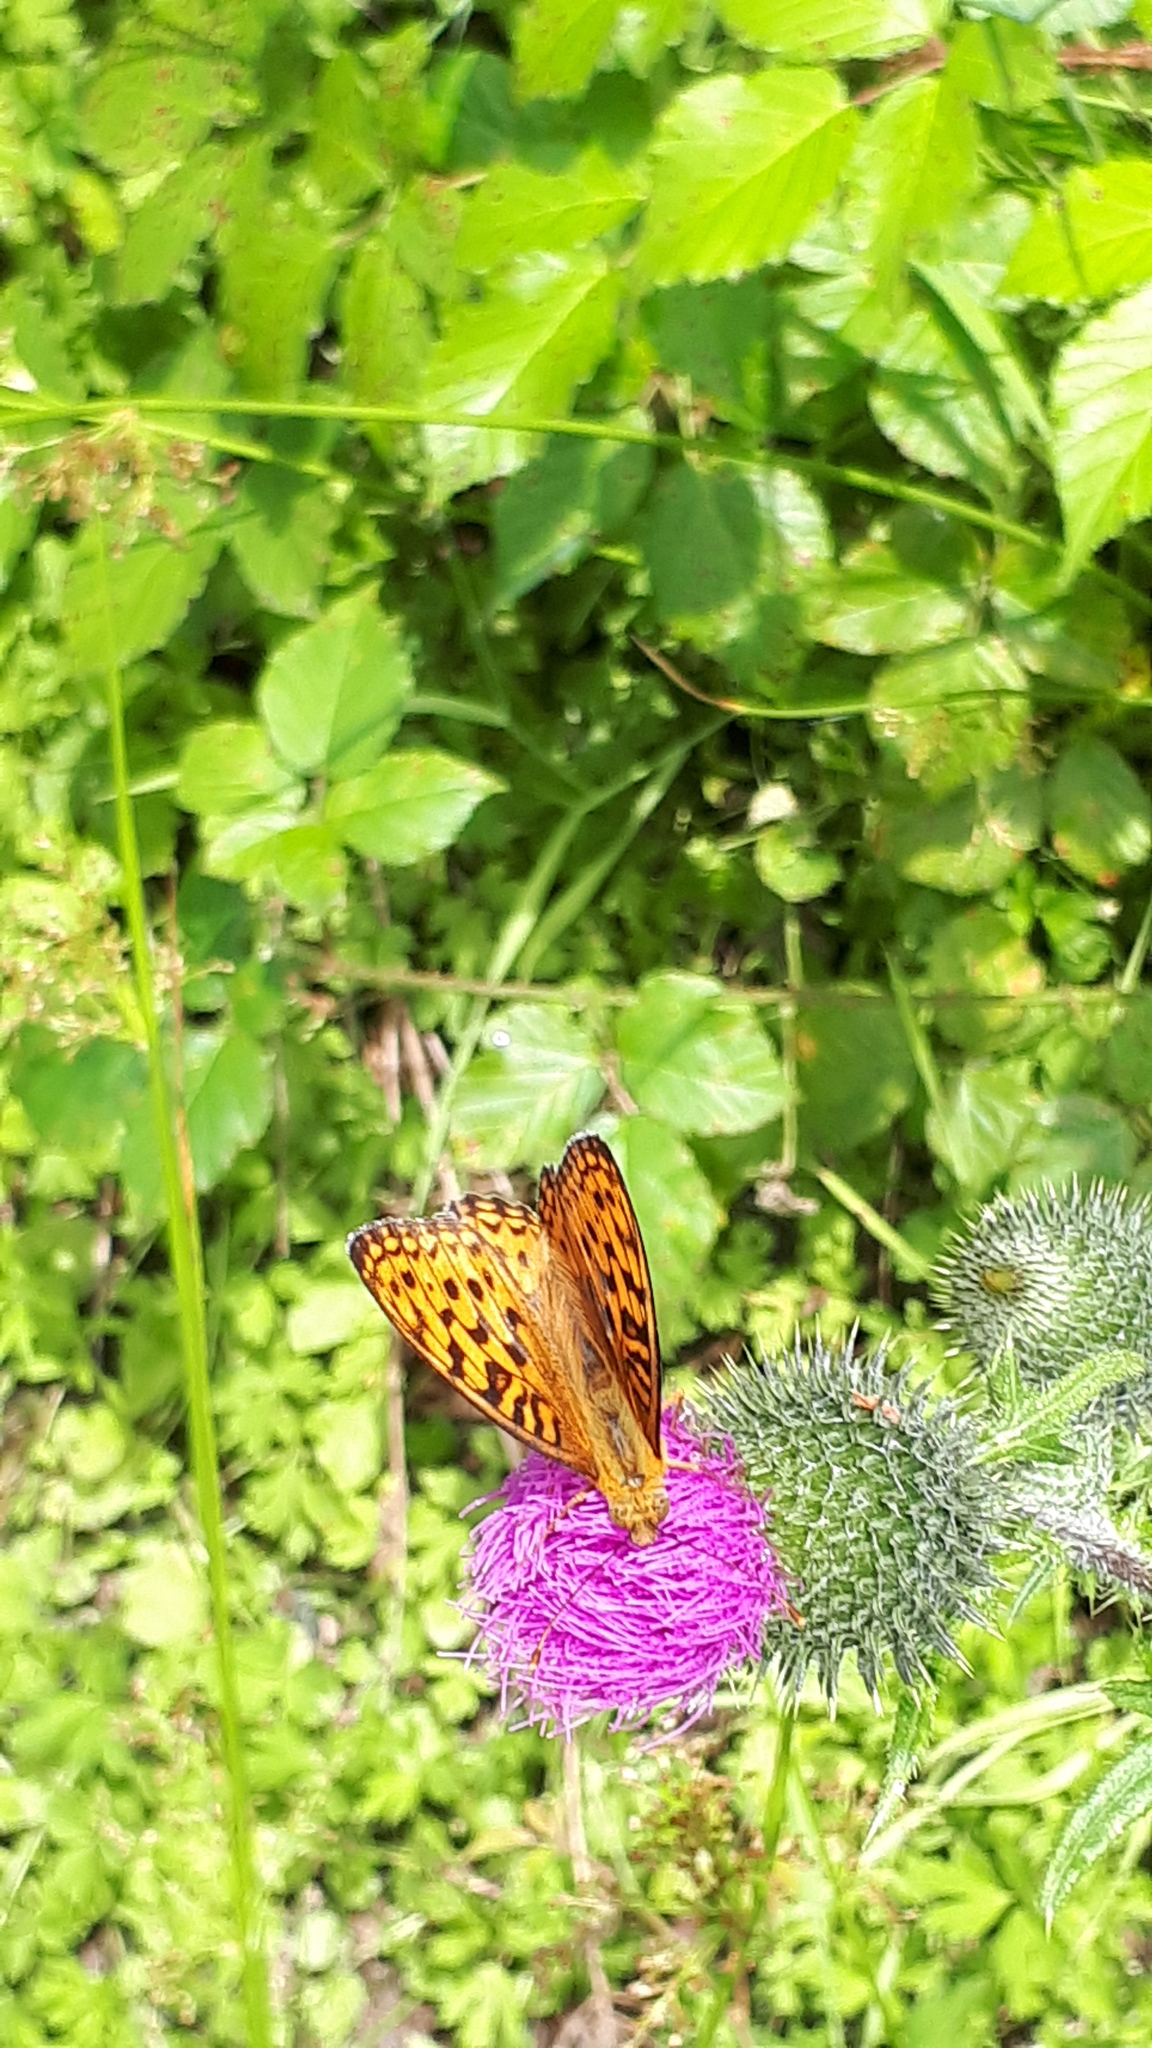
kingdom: Animalia
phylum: Arthropoda
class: Insecta
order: Lepidoptera
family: Nymphalidae
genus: Fabriciana
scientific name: Fabriciana adippe
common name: High brown fritillary
